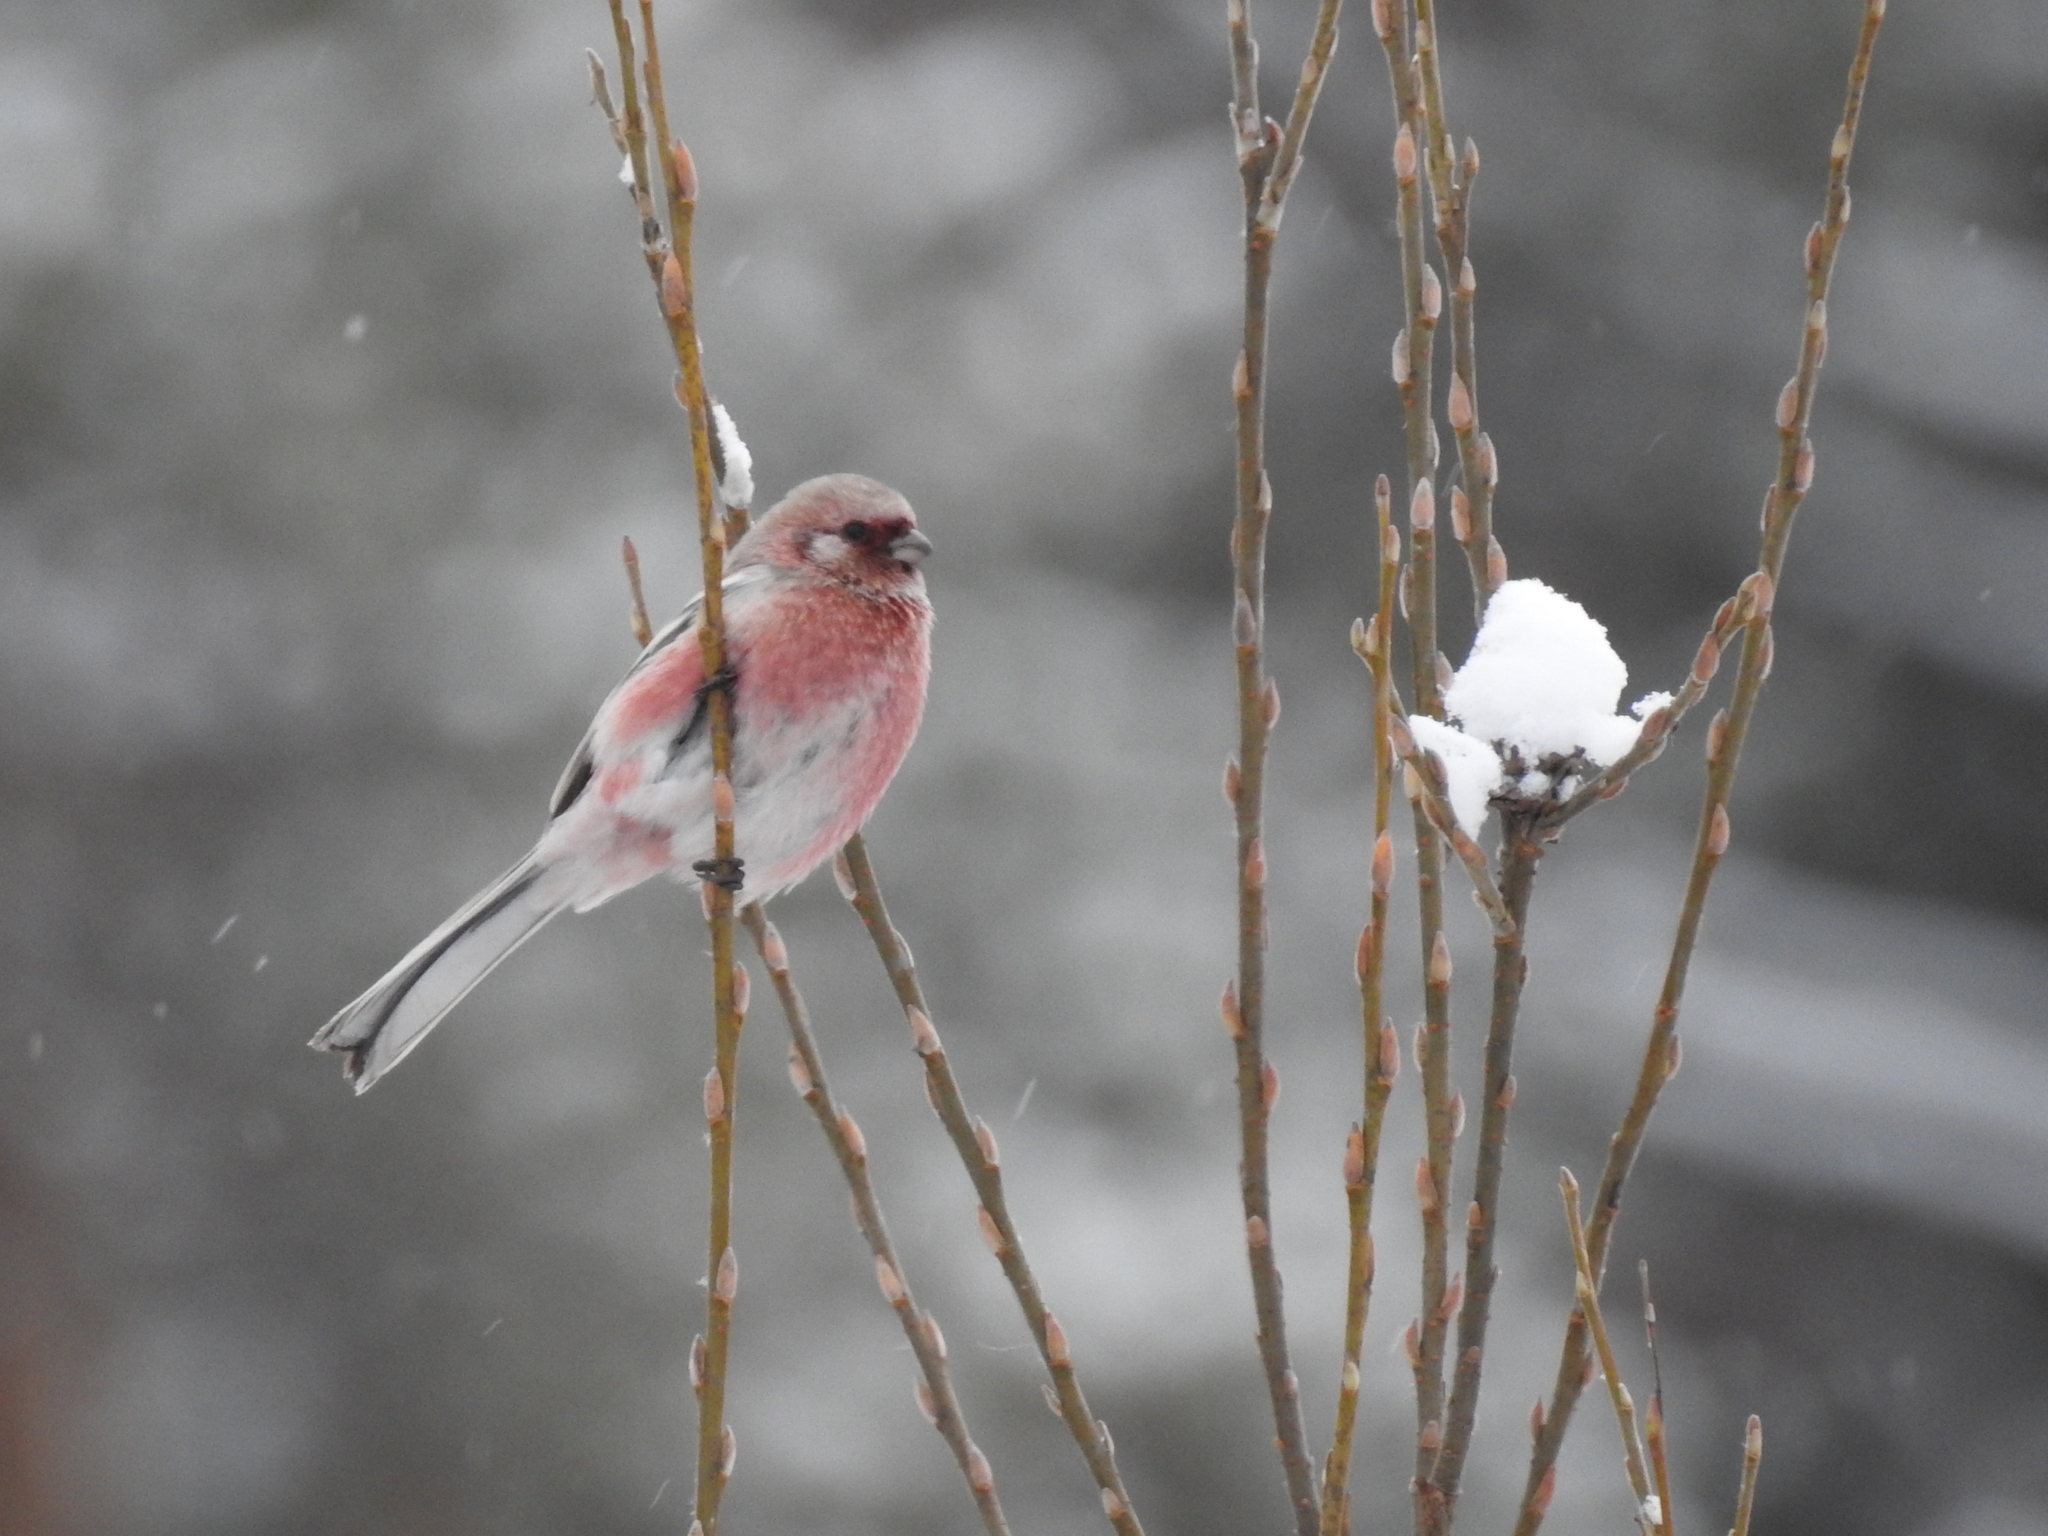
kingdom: Animalia
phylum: Chordata
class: Aves
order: Passeriformes
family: Fringillidae
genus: Carpodacus
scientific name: Carpodacus sibiricus
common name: Long-tailed rosefinch
